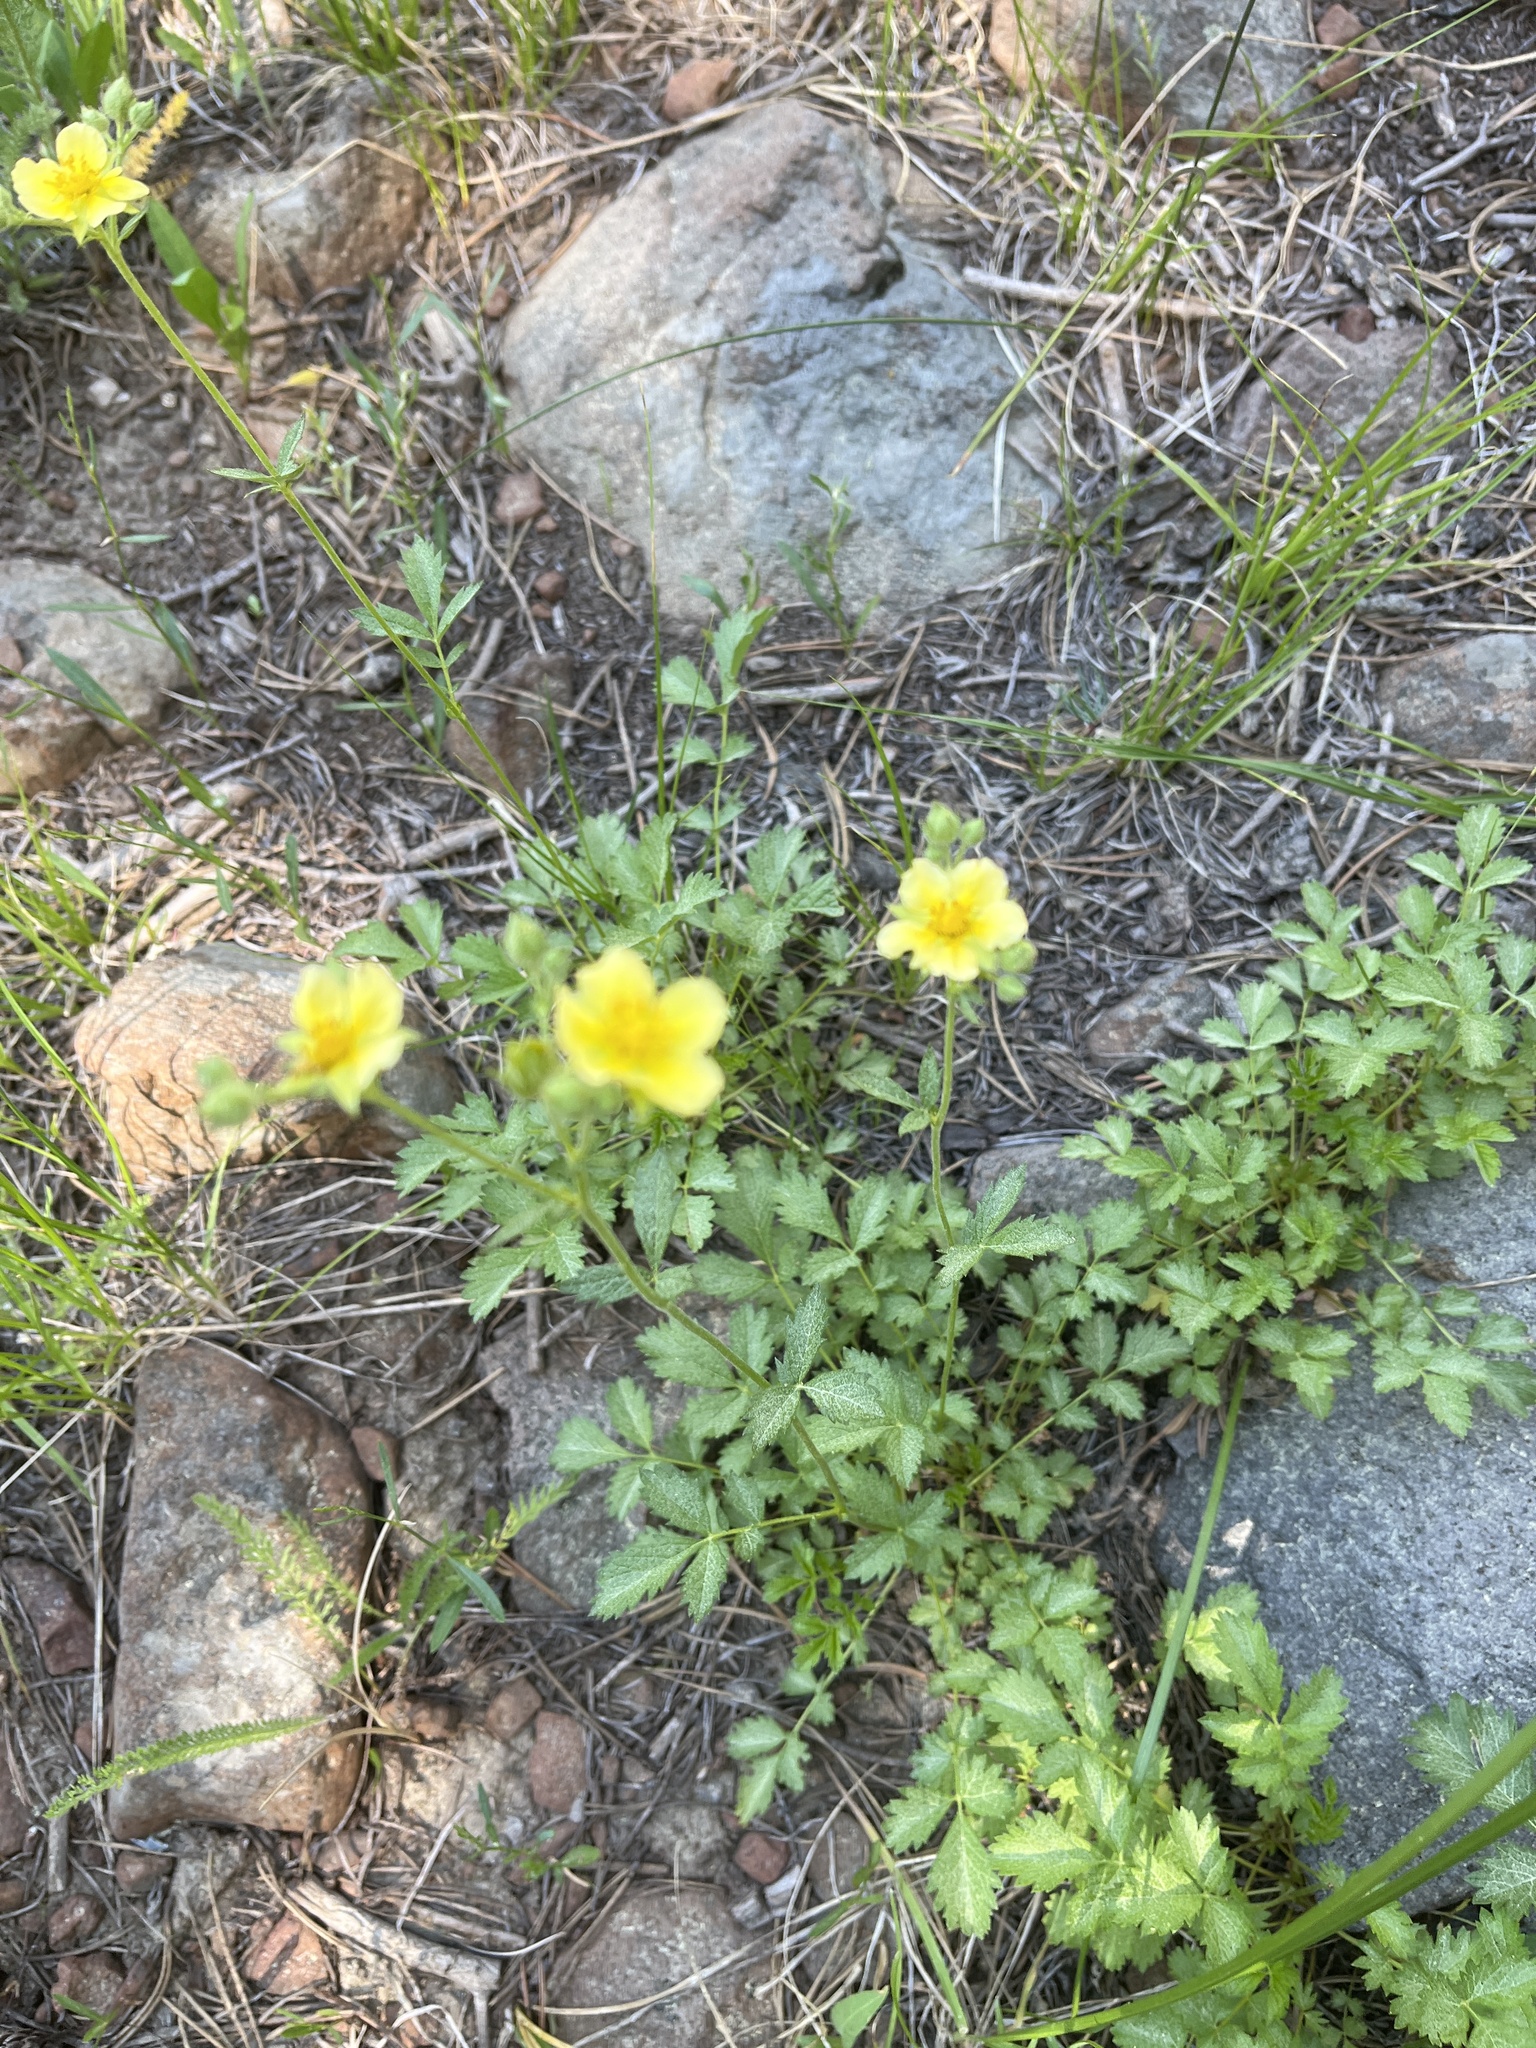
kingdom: Plantae
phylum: Tracheophyta
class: Magnoliopsida
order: Rosales
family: Rosaceae
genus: Drymocallis
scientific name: Drymocallis lactea
